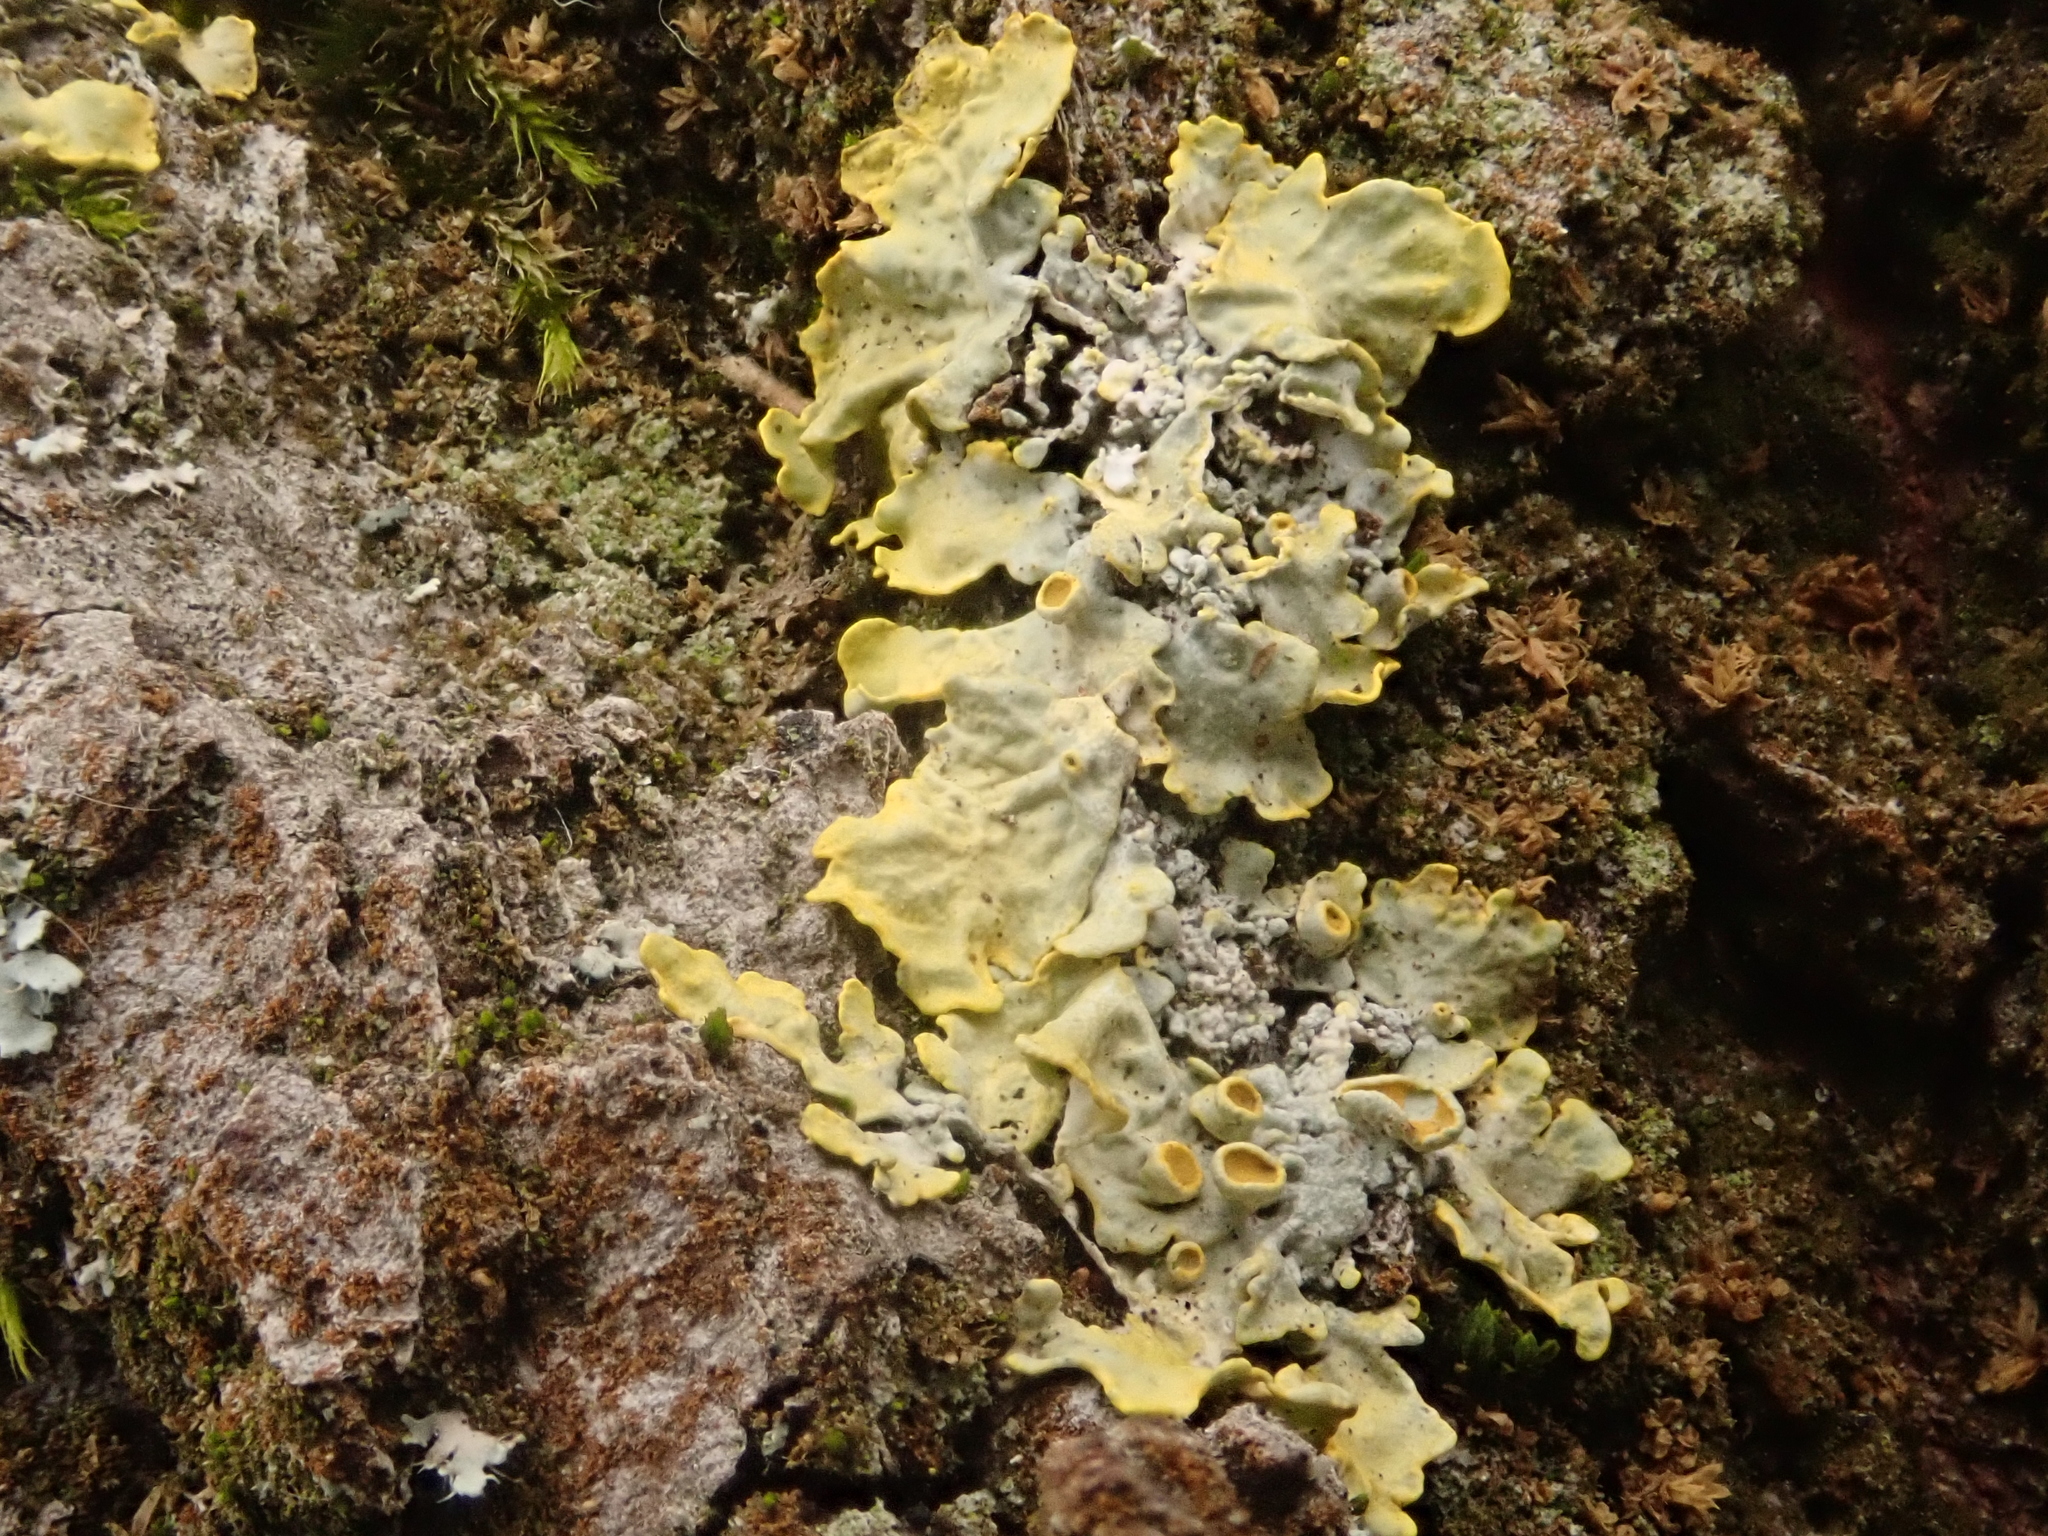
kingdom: Fungi
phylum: Ascomycota
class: Lecanoromycetes
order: Teloschistales
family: Teloschistaceae
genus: Xanthoria
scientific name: Xanthoria parietina
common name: Common orange lichen
